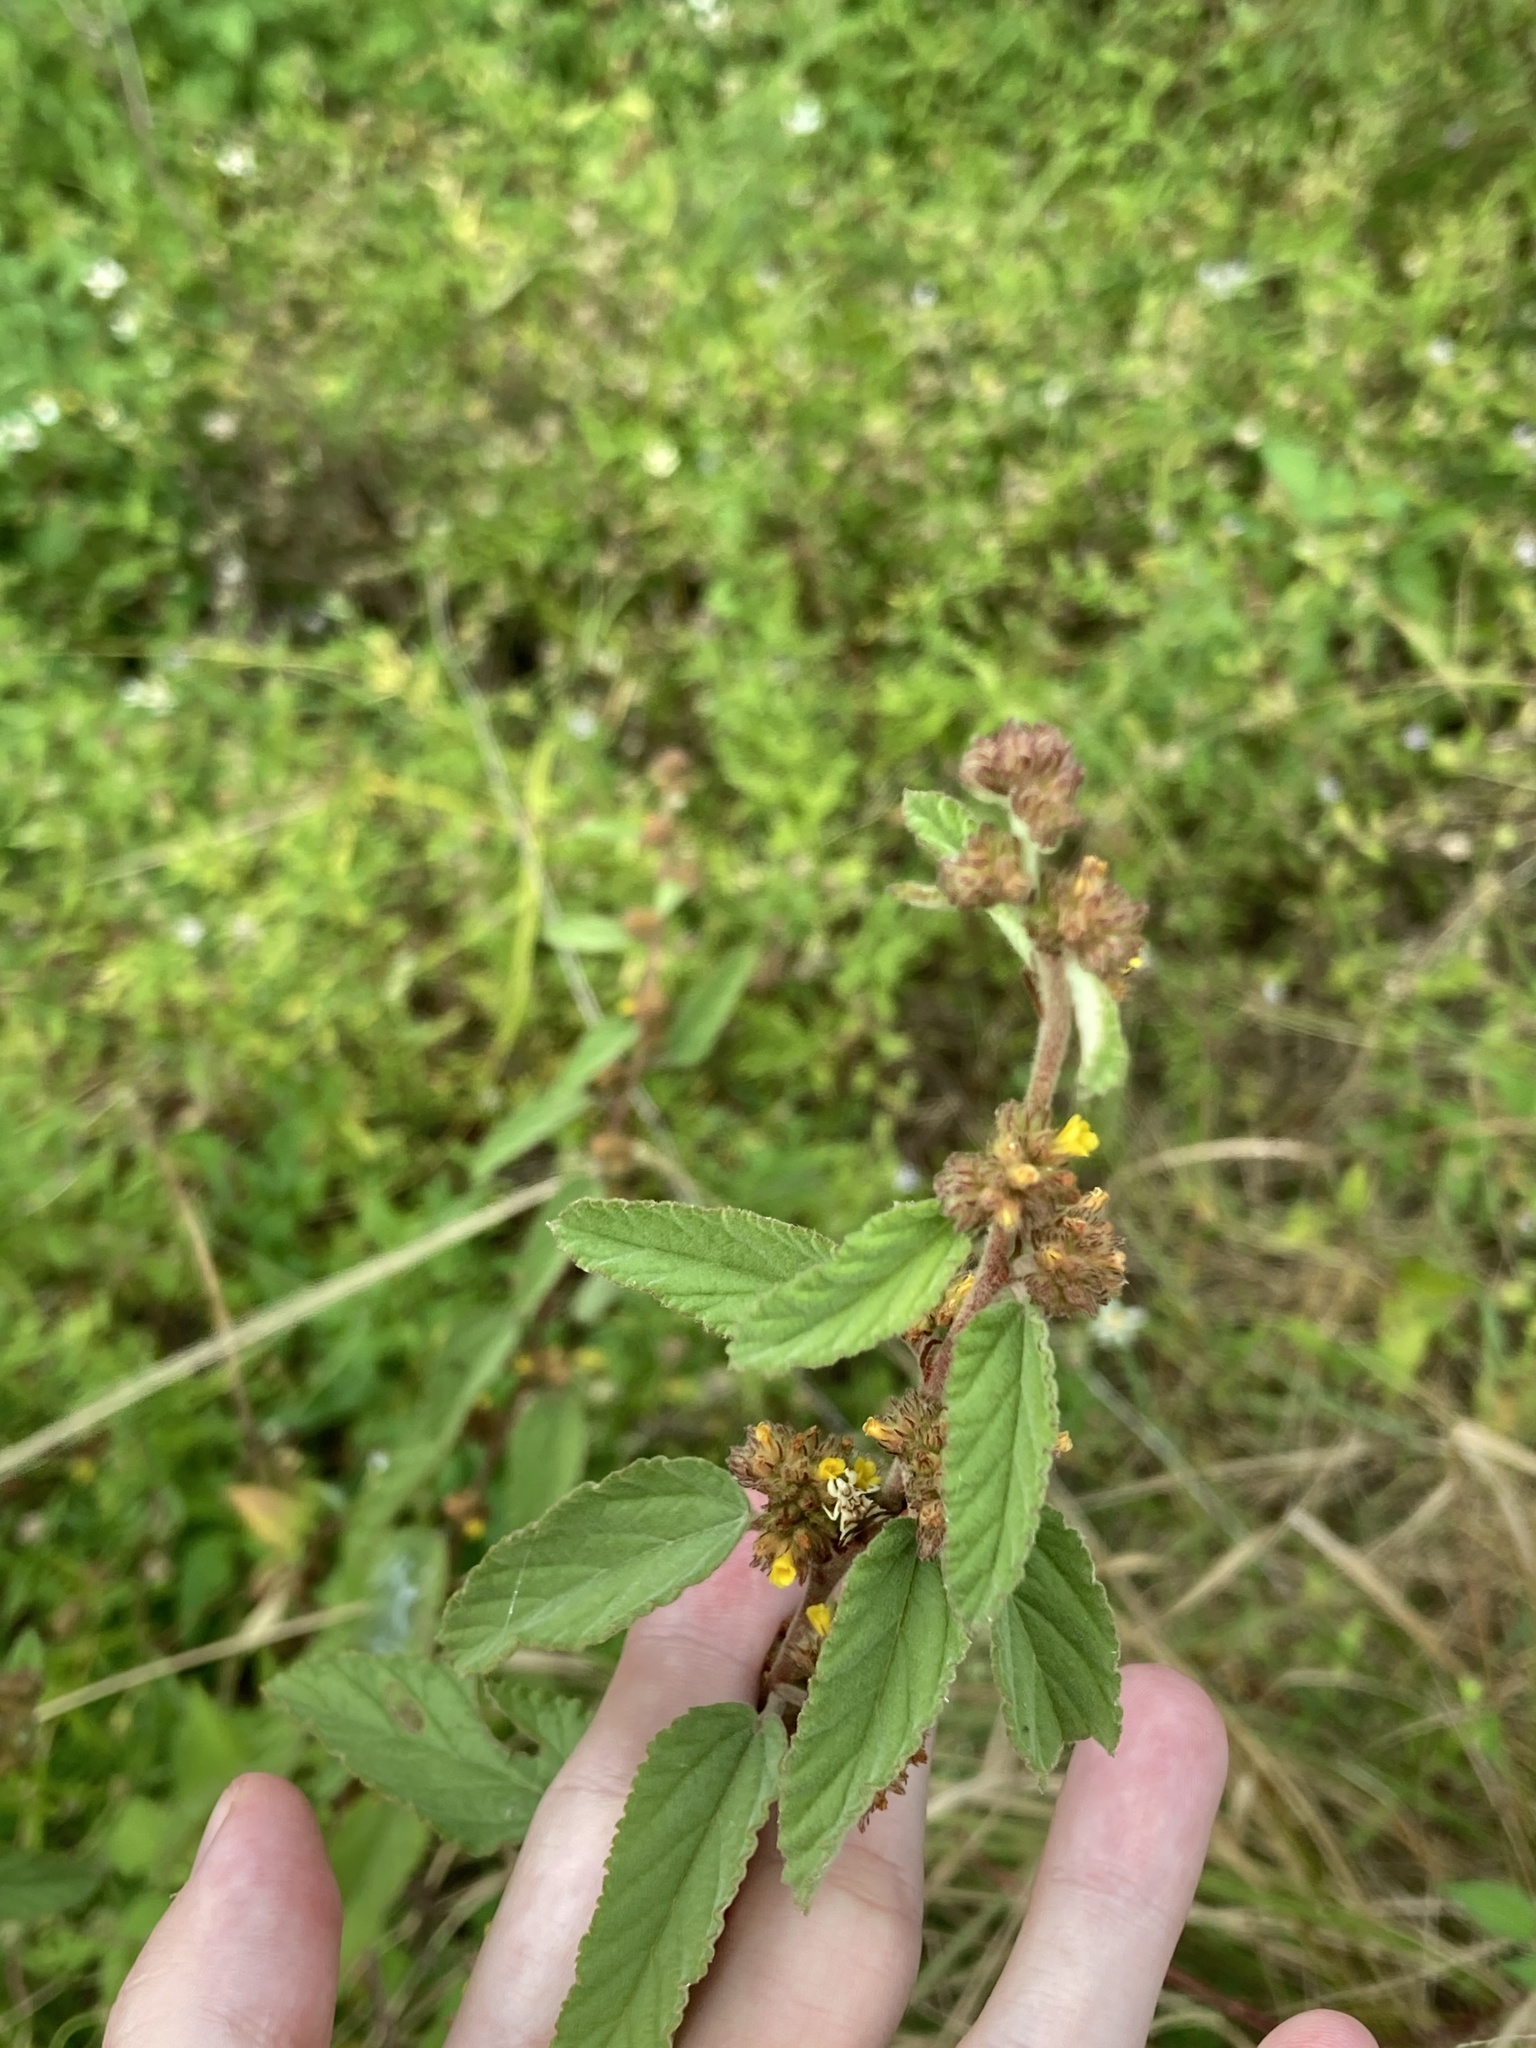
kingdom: Plantae
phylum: Tracheophyta
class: Magnoliopsida
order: Malvales
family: Malvaceae
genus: Waltheria
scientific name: Waltheria indica
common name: Leather-coat
